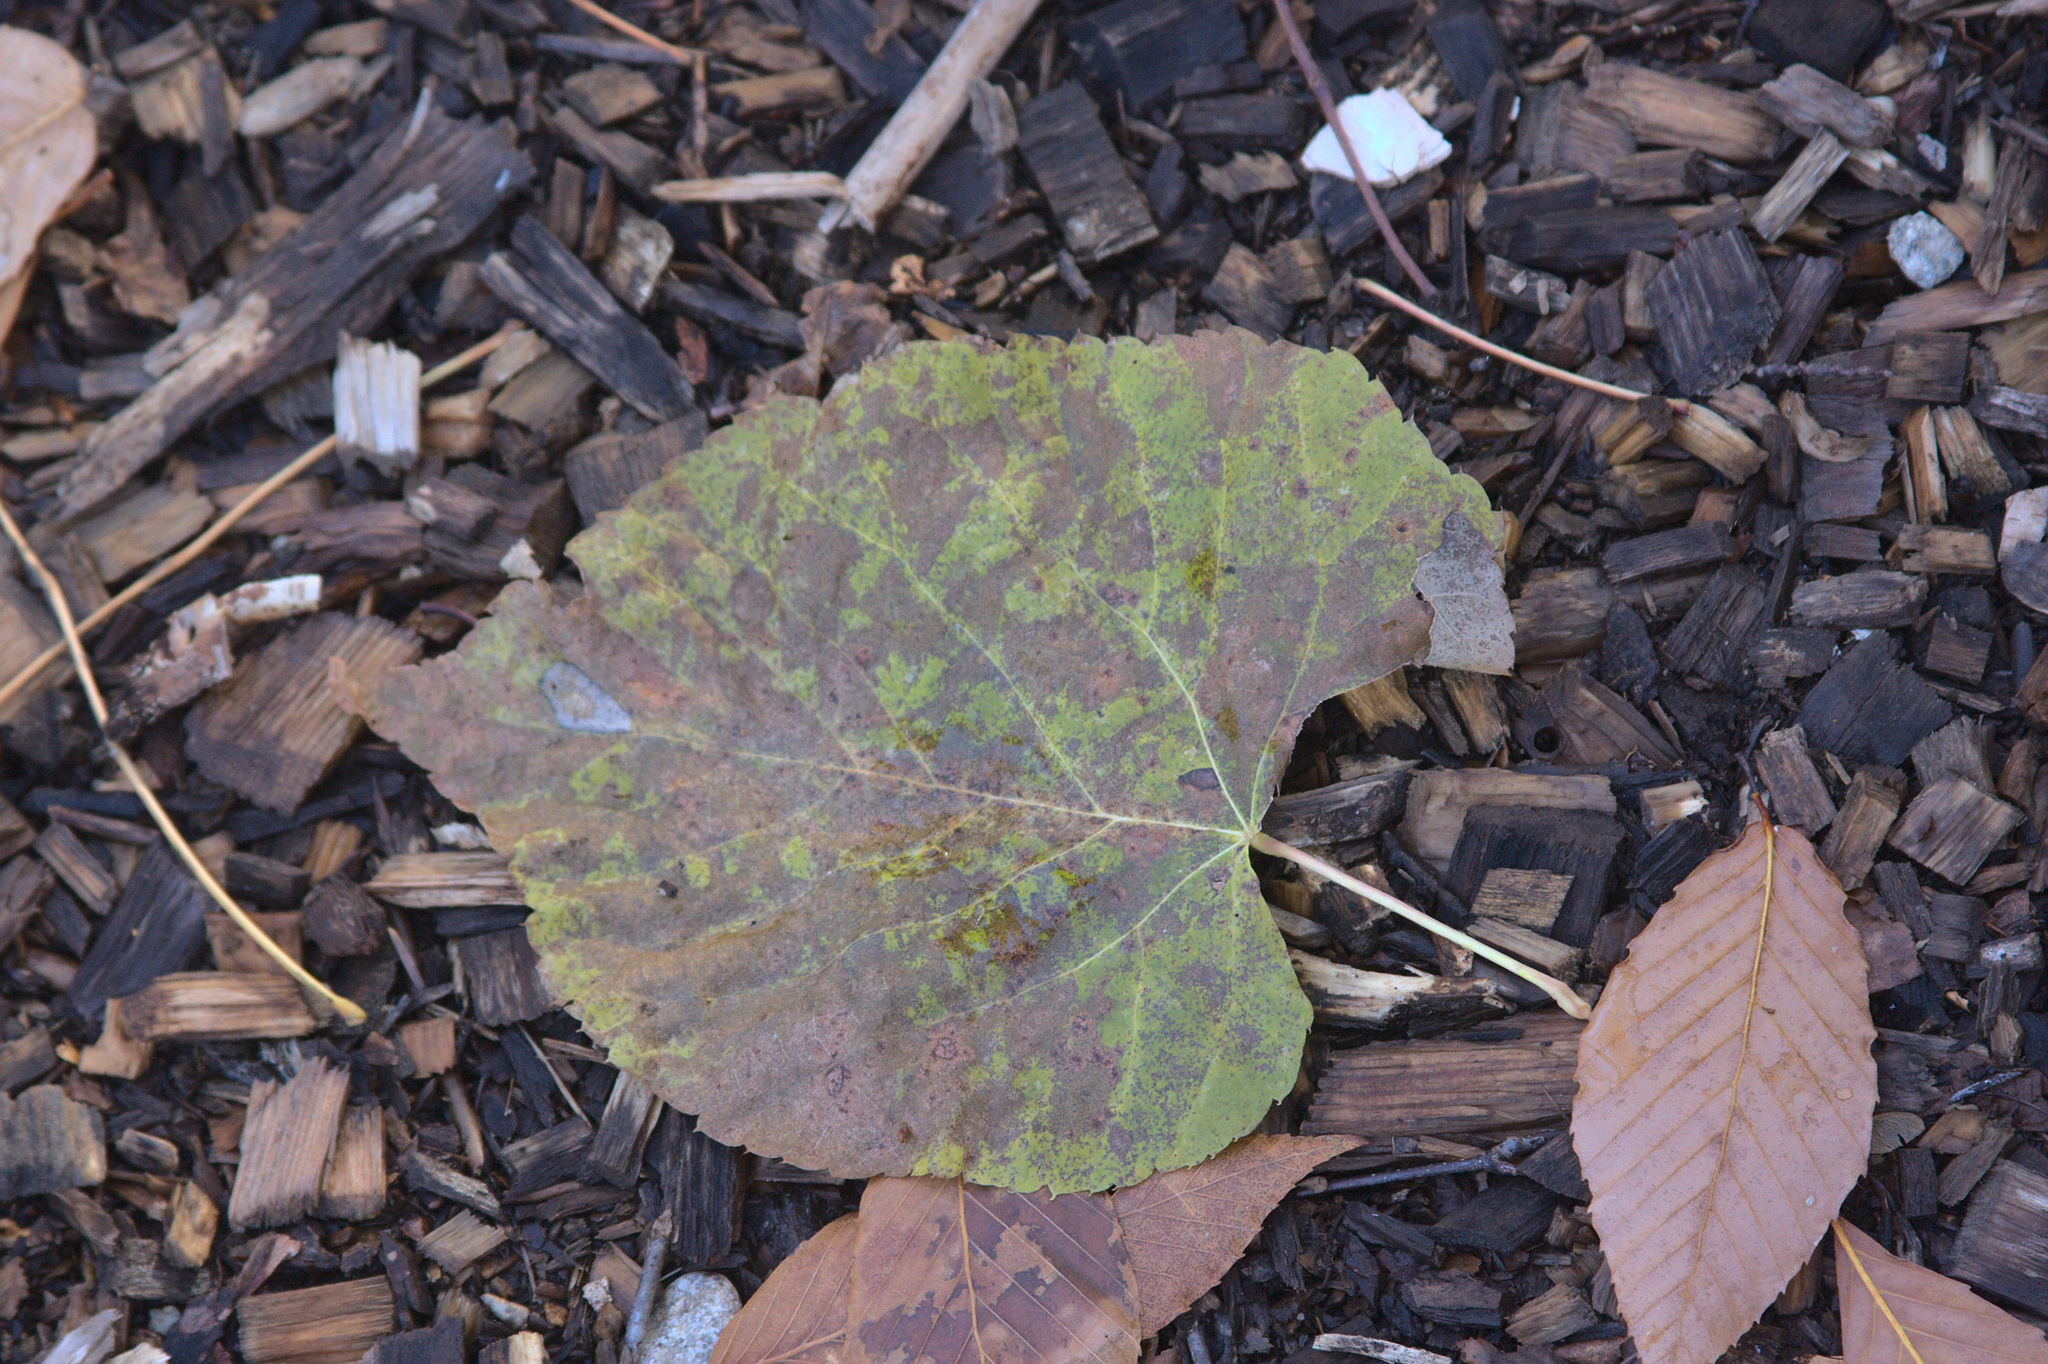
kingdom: Plantae
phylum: Tracheophyta
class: Magnoliopsida
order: Malvales
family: Malvaceae
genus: Tilia
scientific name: Tilia americana
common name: Basswood
